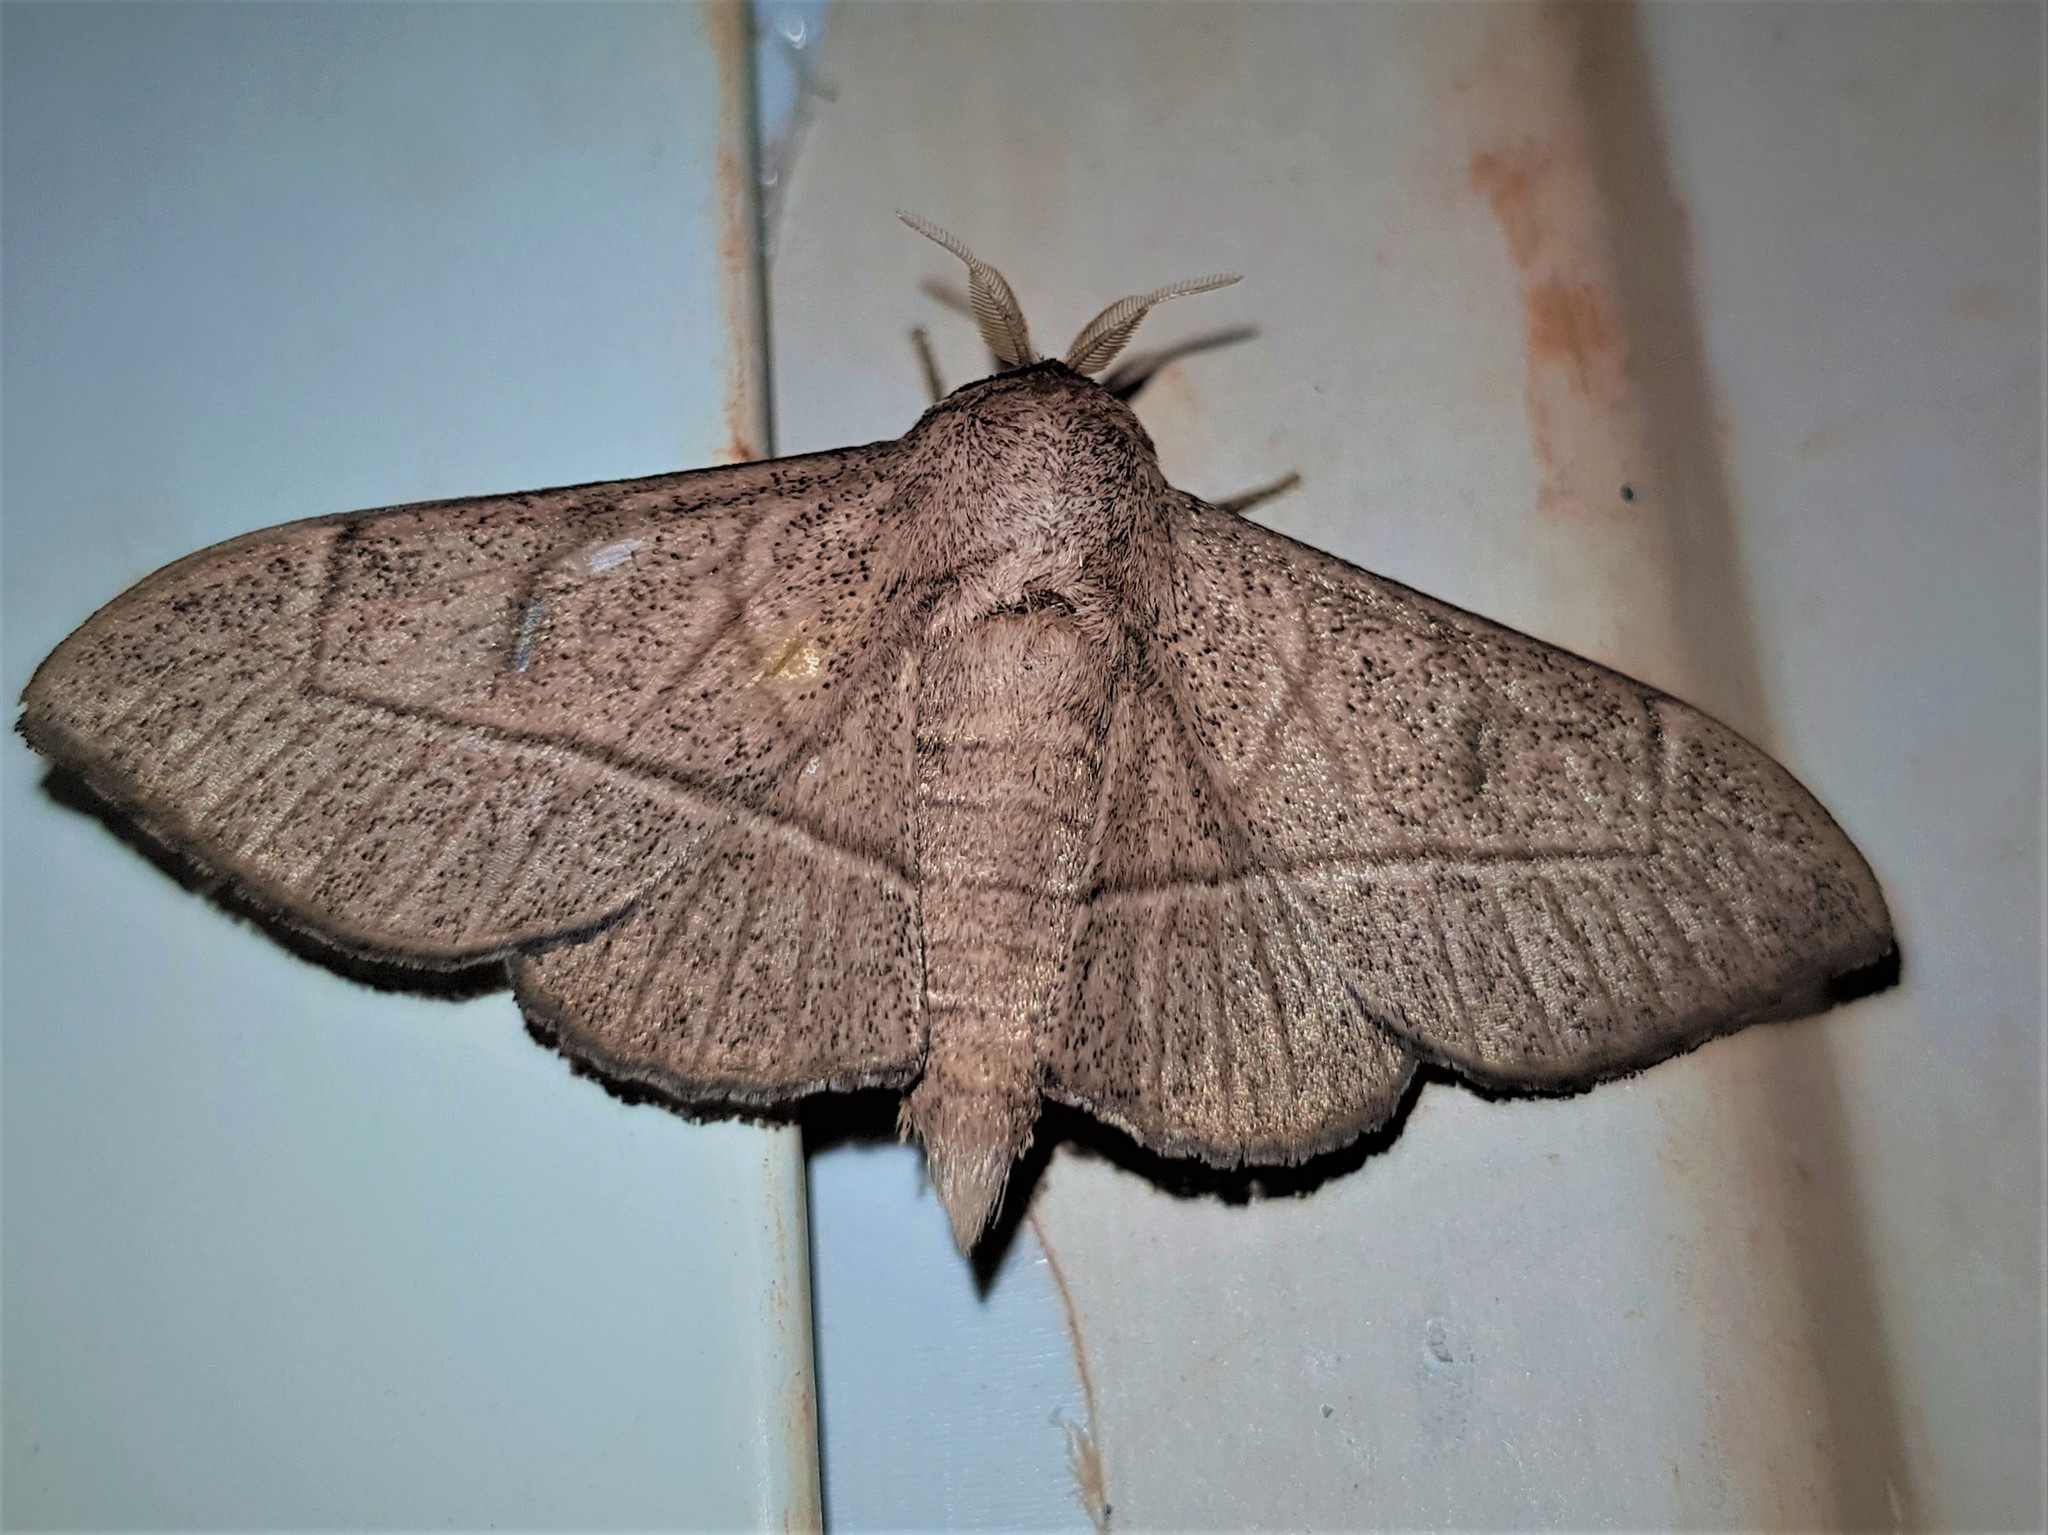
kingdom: Animalia
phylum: Arthropoda
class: Insecta
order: Lepidoptera
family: Mimallonidae
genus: Bedosia
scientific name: Bedosia trailii
